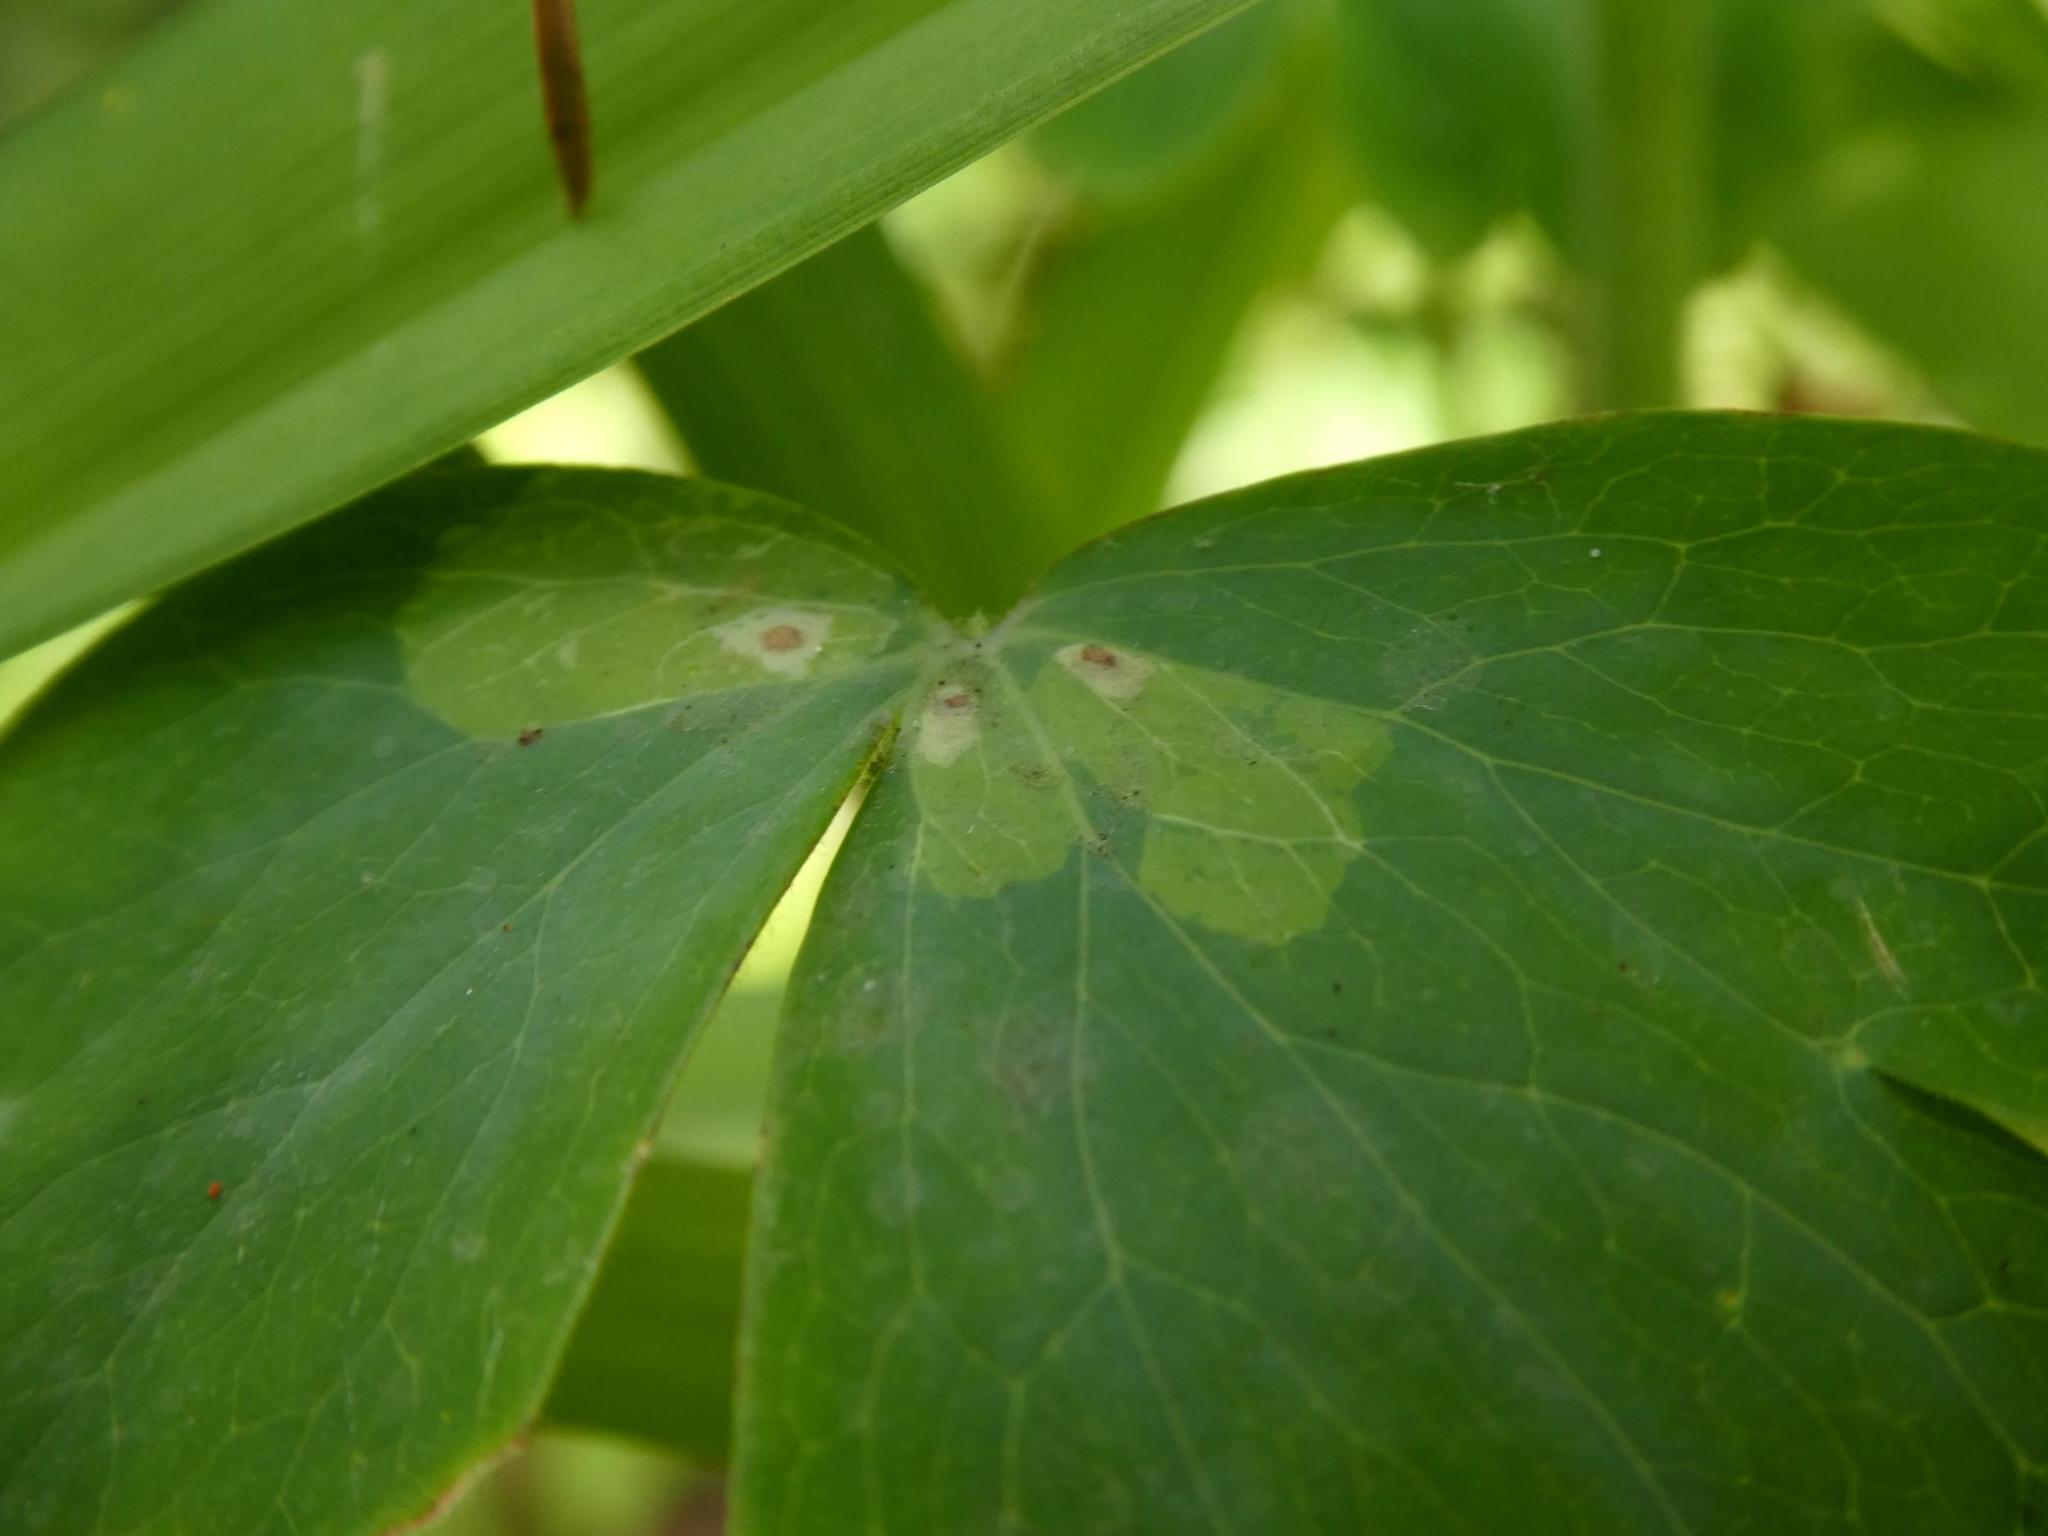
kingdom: Animalia
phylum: Arthropoda
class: Insecta
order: Diptera
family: Agromyzidae
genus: Phytomyza
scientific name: Phytomyza aquilegiae
